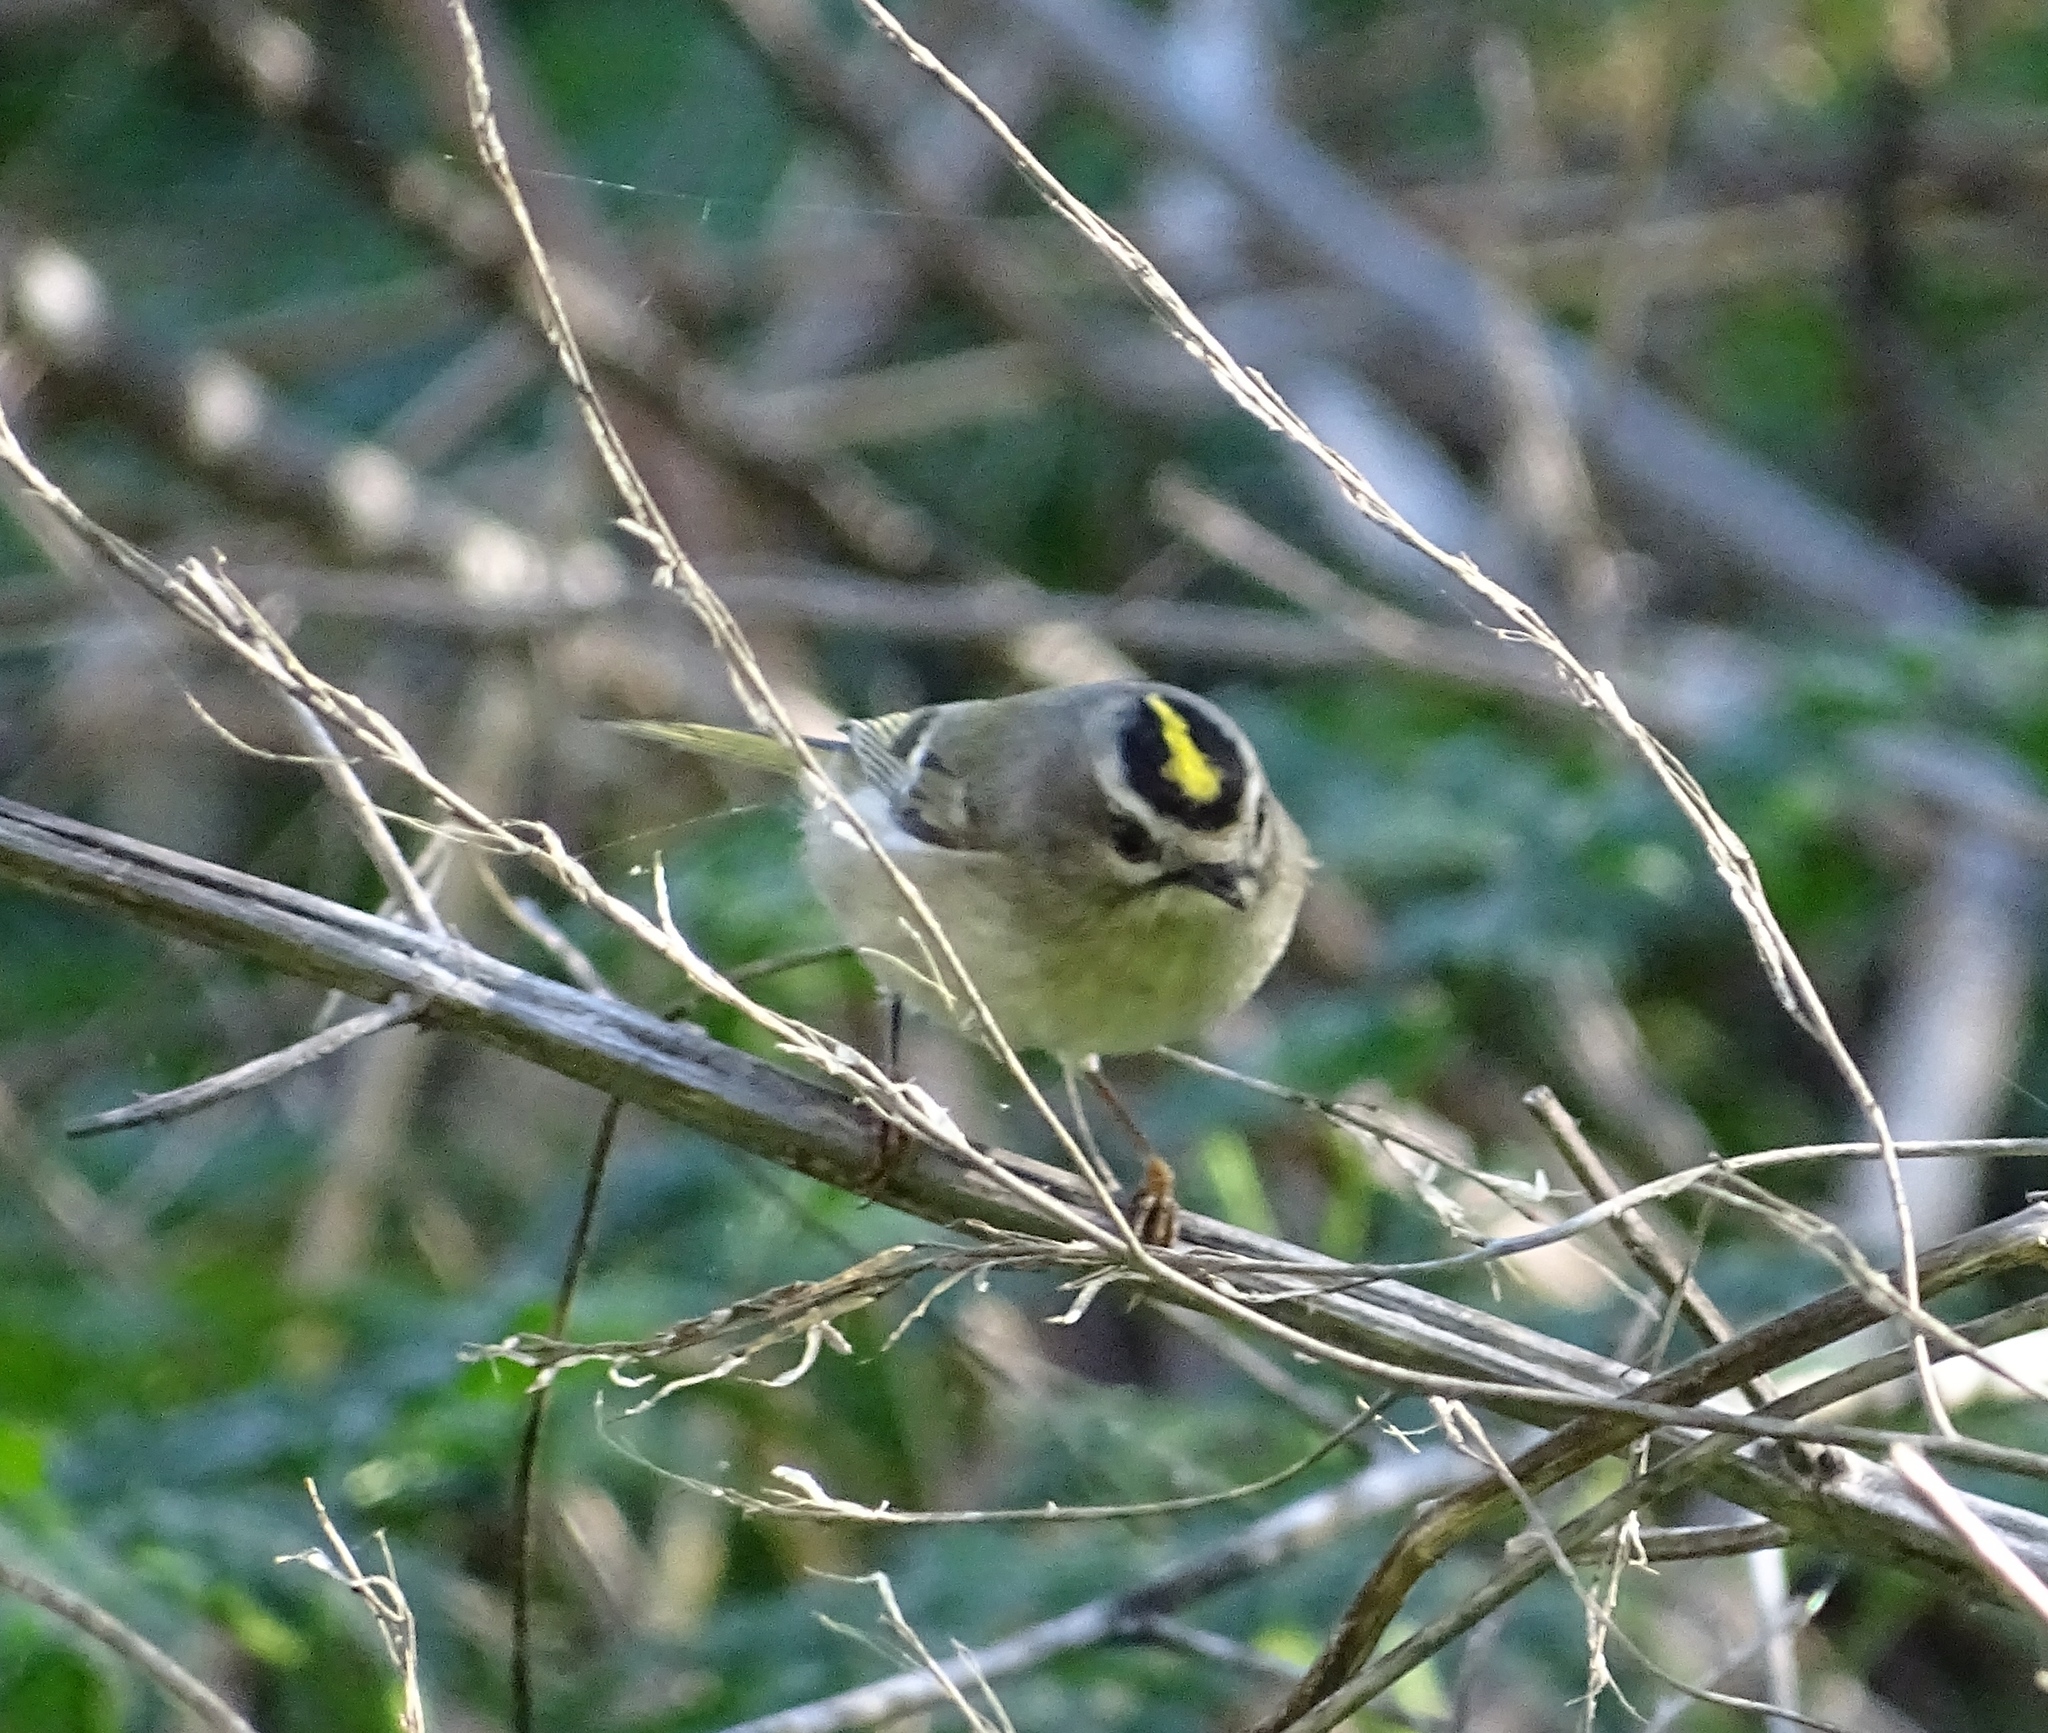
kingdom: Animalia
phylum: Chordata
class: Aves
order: Passeriformes
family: Regulidae
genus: Regulus
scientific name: Regulus satrapa
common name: Golden-crowned kinglet
